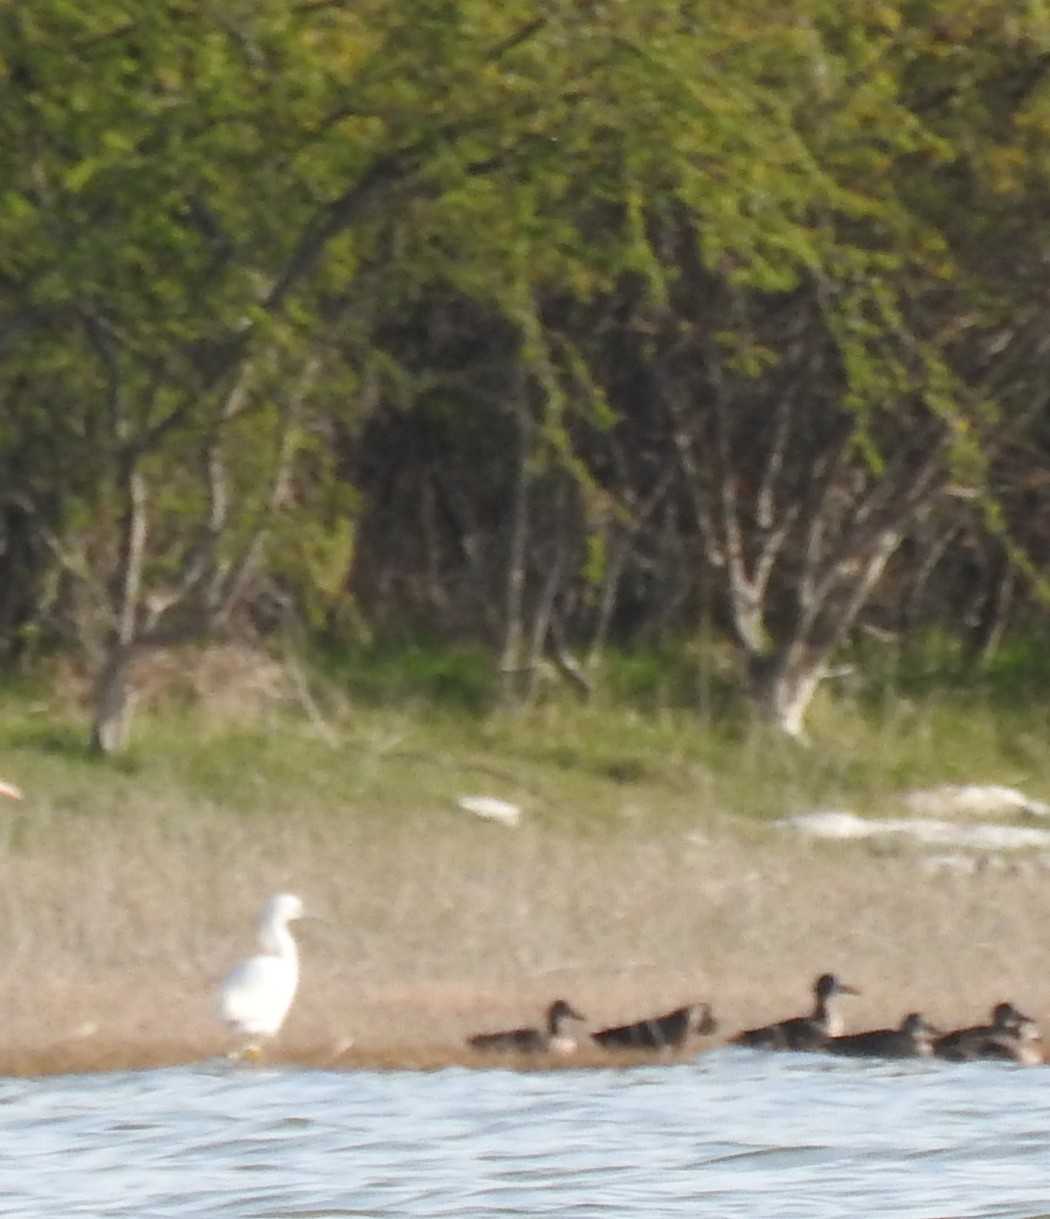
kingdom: Animalia
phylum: Chordata
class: Aves
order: Pelecaniformes
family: Ardeidae
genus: Egretta
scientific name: Egretta thula
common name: Snowy egret
